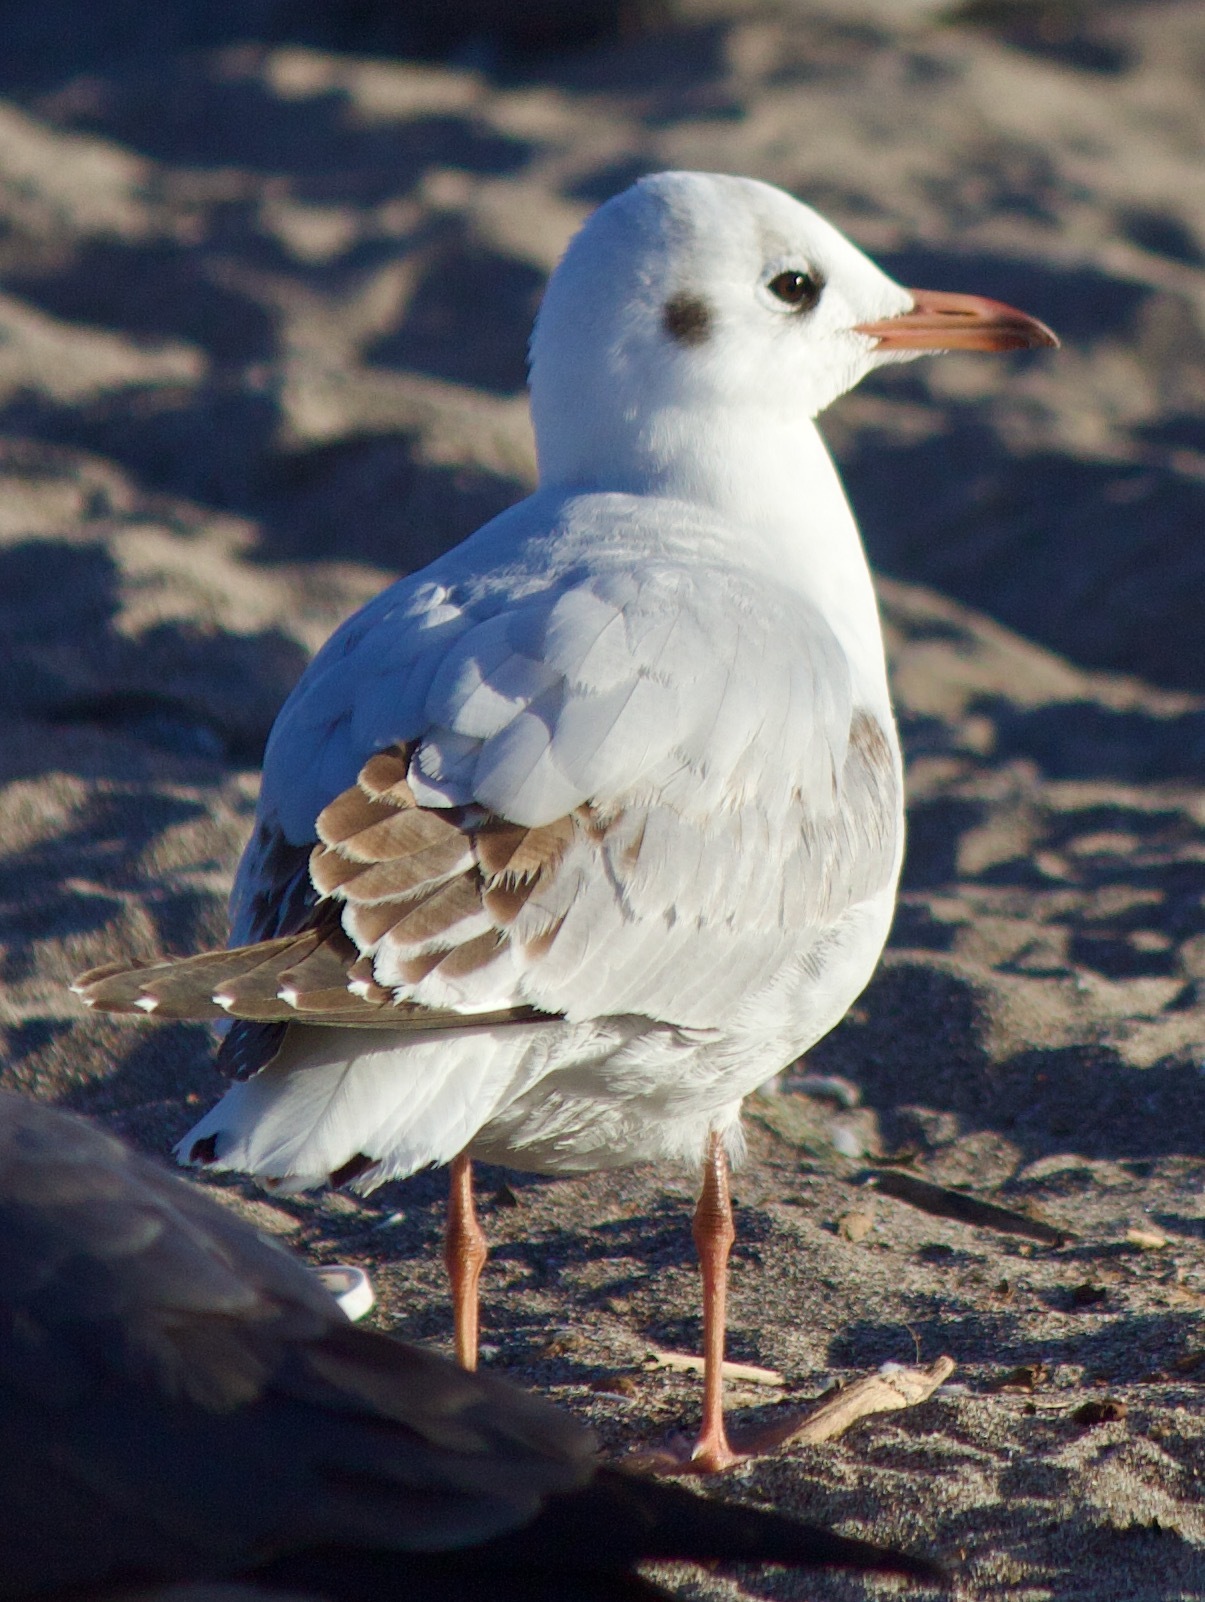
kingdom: Animalia
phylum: Chordata
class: Aves
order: Charadriiformes
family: Laridae
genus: Chroicocephalus
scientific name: Chroicocephalus maculipennis
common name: Brown-hooded gull
